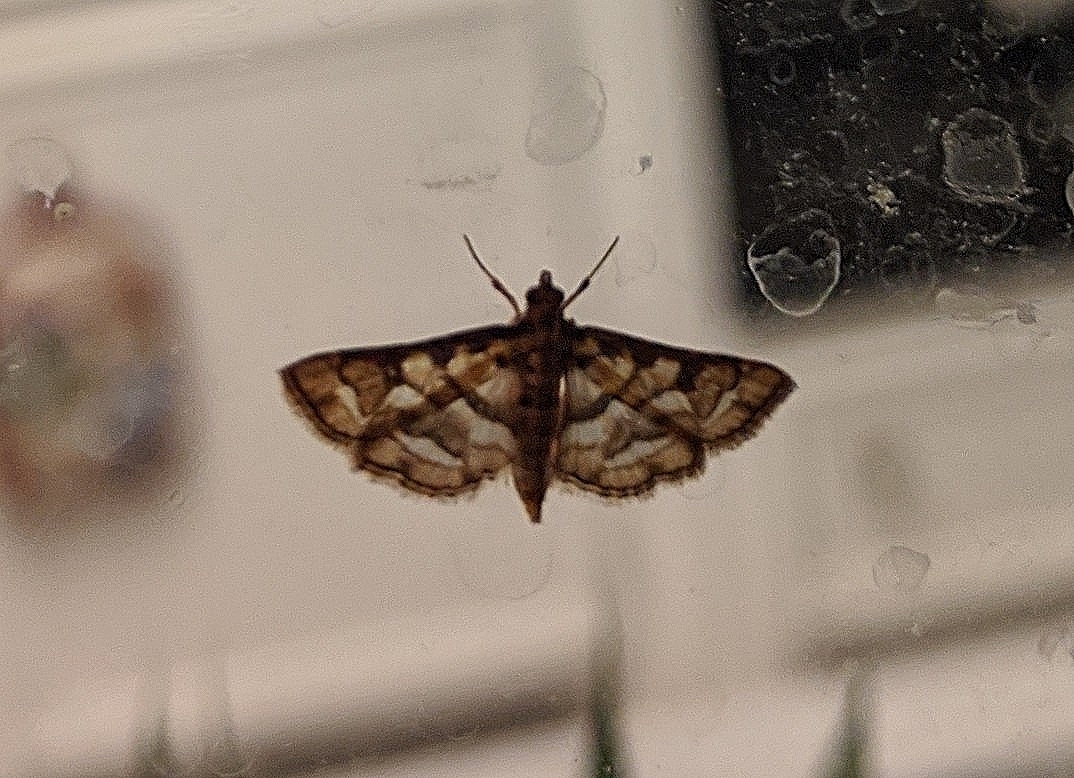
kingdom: Animalia
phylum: Arthropoda
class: Insecta
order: Lepidoptera
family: Crambidae
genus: Hileithia
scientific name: Hileithia magualis
